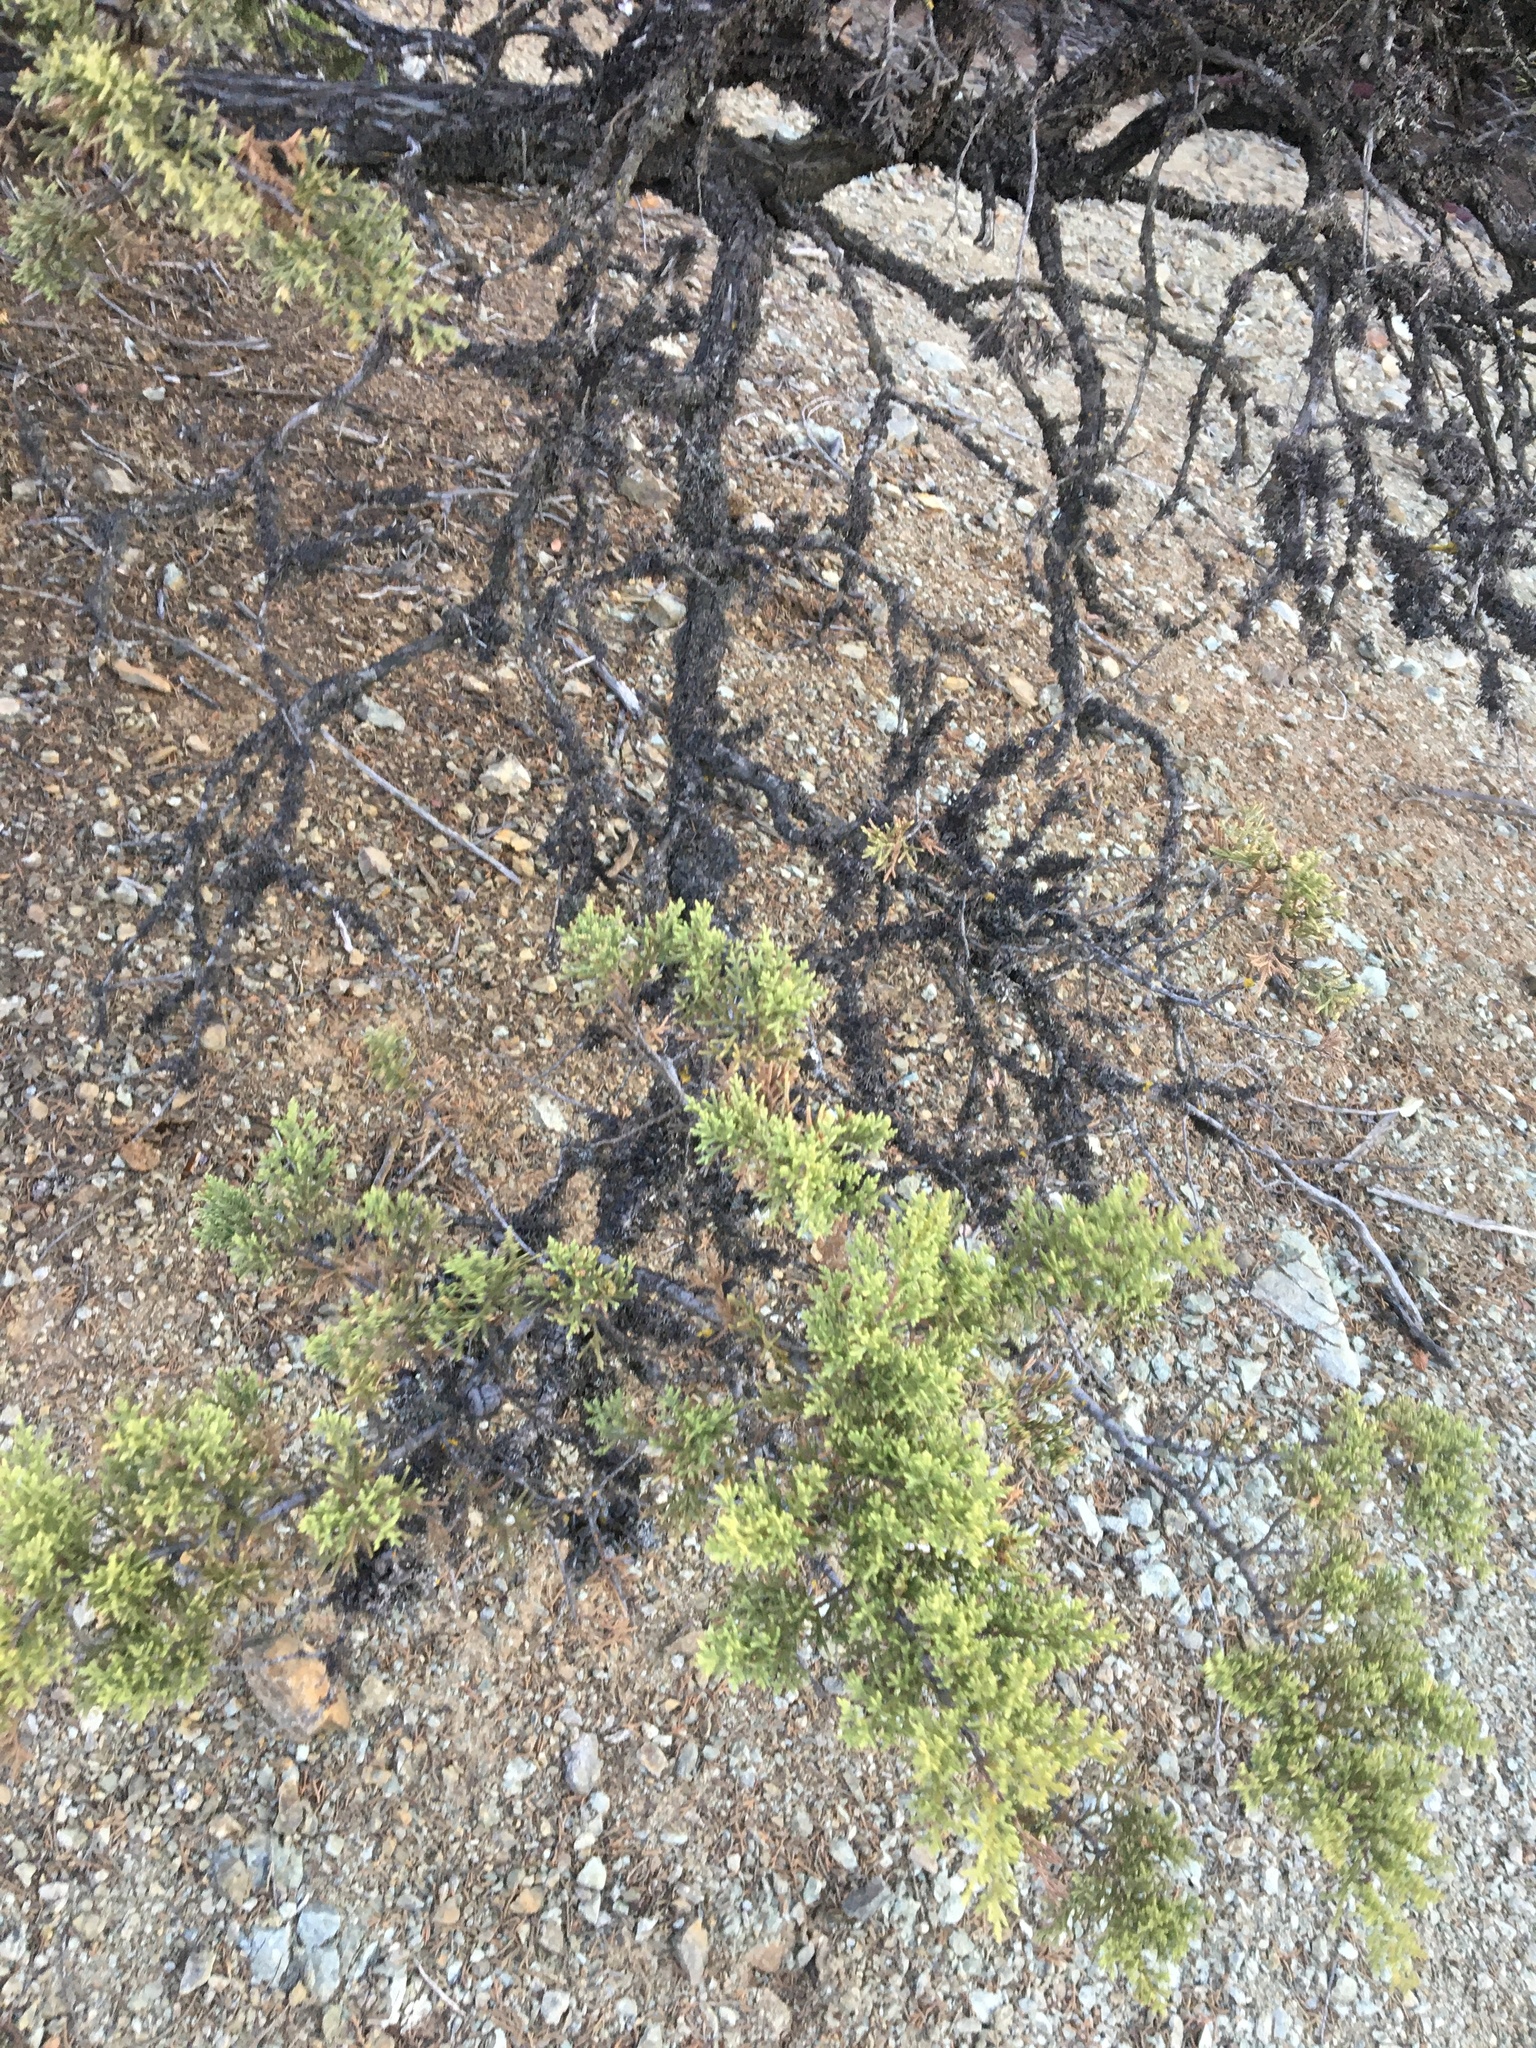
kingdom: Plantae
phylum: Tracheophyta
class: Pinopsida
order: Pinales
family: Cupressaceae
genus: Cupressus
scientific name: Cupressus sargentii
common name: Sargent cypress
